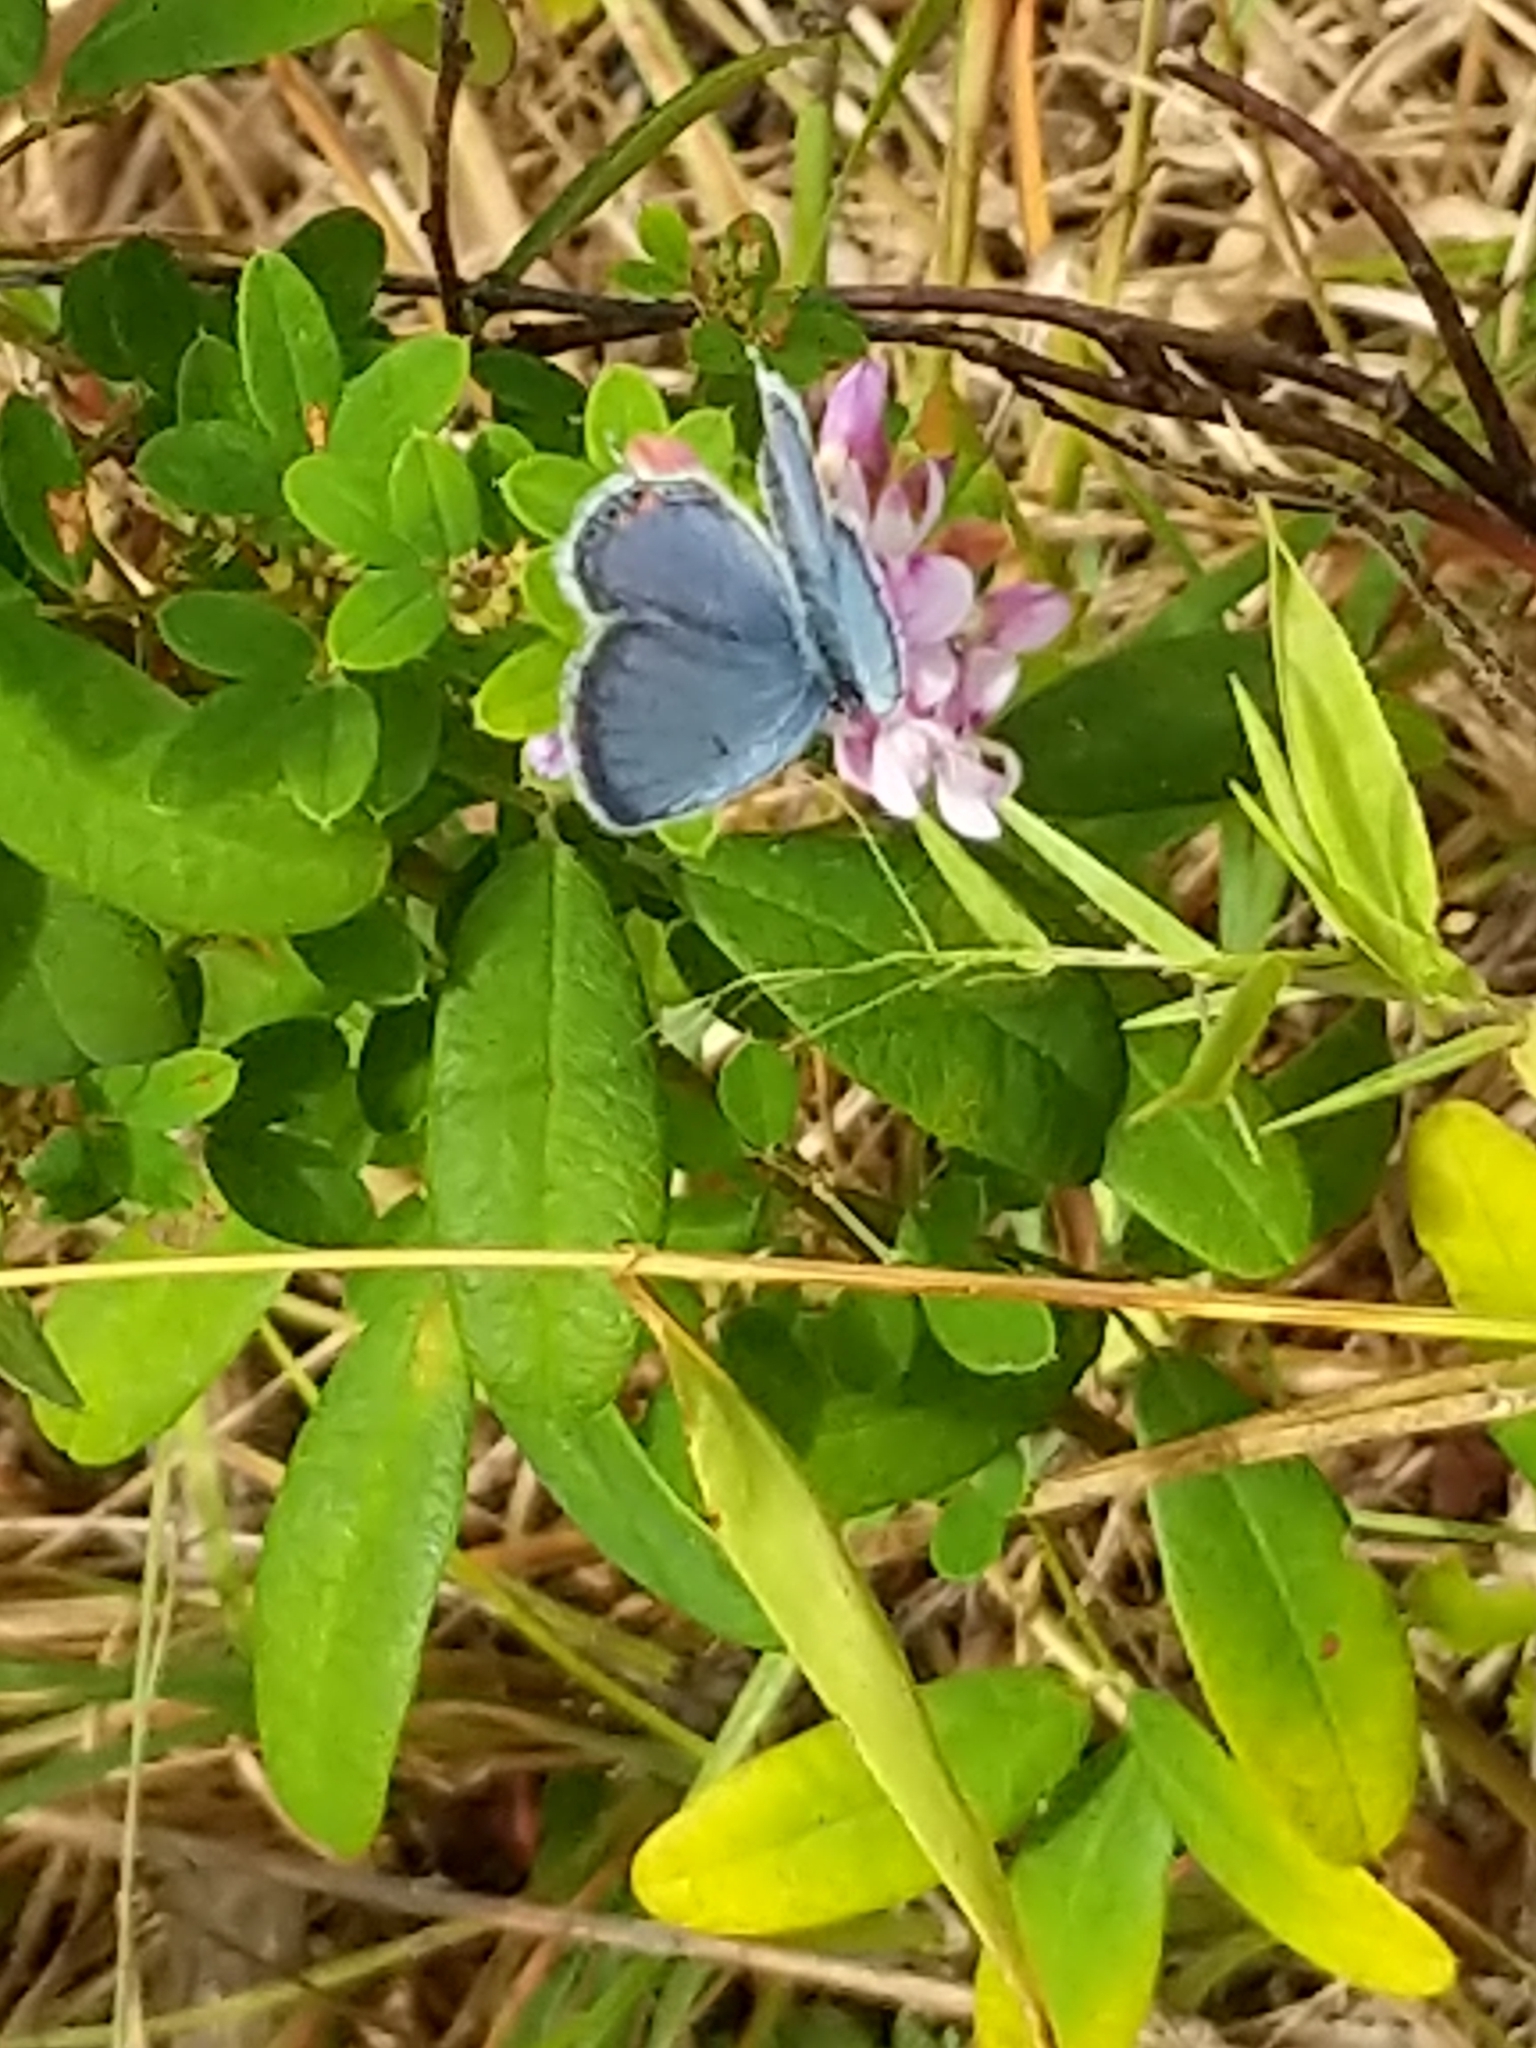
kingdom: Animalia
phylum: Arthropoda
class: Insecta
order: Lepidoptera
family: Lycaenidae
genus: Elkalyce
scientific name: Elkalyce comyntas
